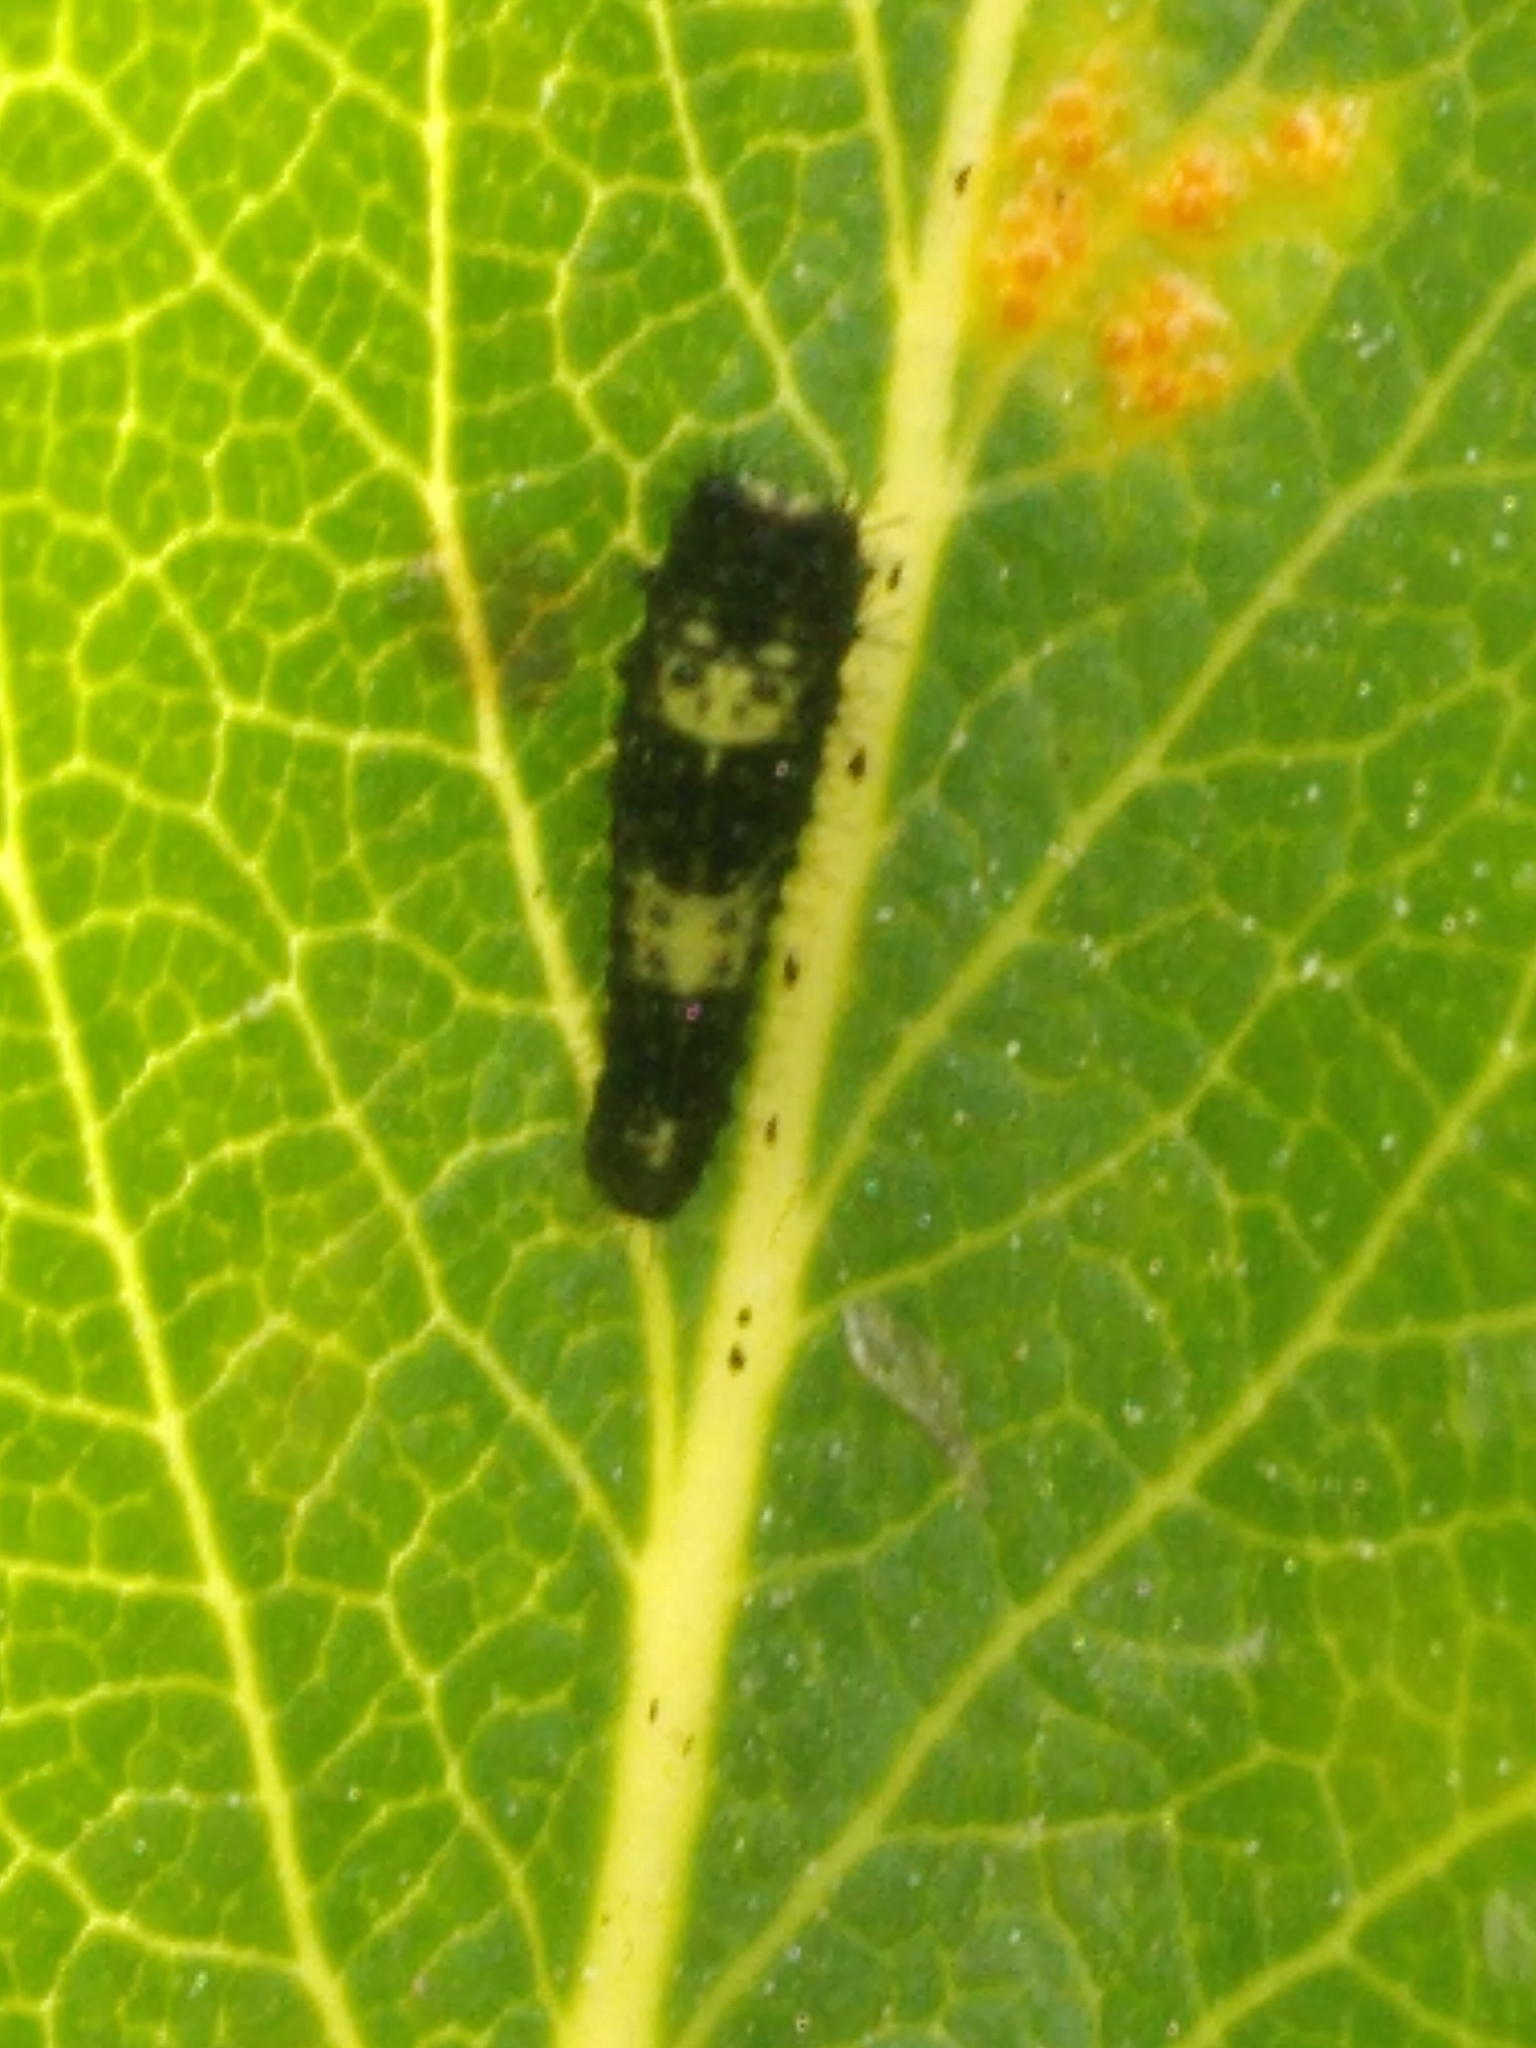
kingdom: Animalia
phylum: Arthropoda
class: Insecta
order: Lepidoptera
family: Papilionidae
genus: Iphiclides
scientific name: Iphiclides podalirius
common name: Scarce swallowtail
